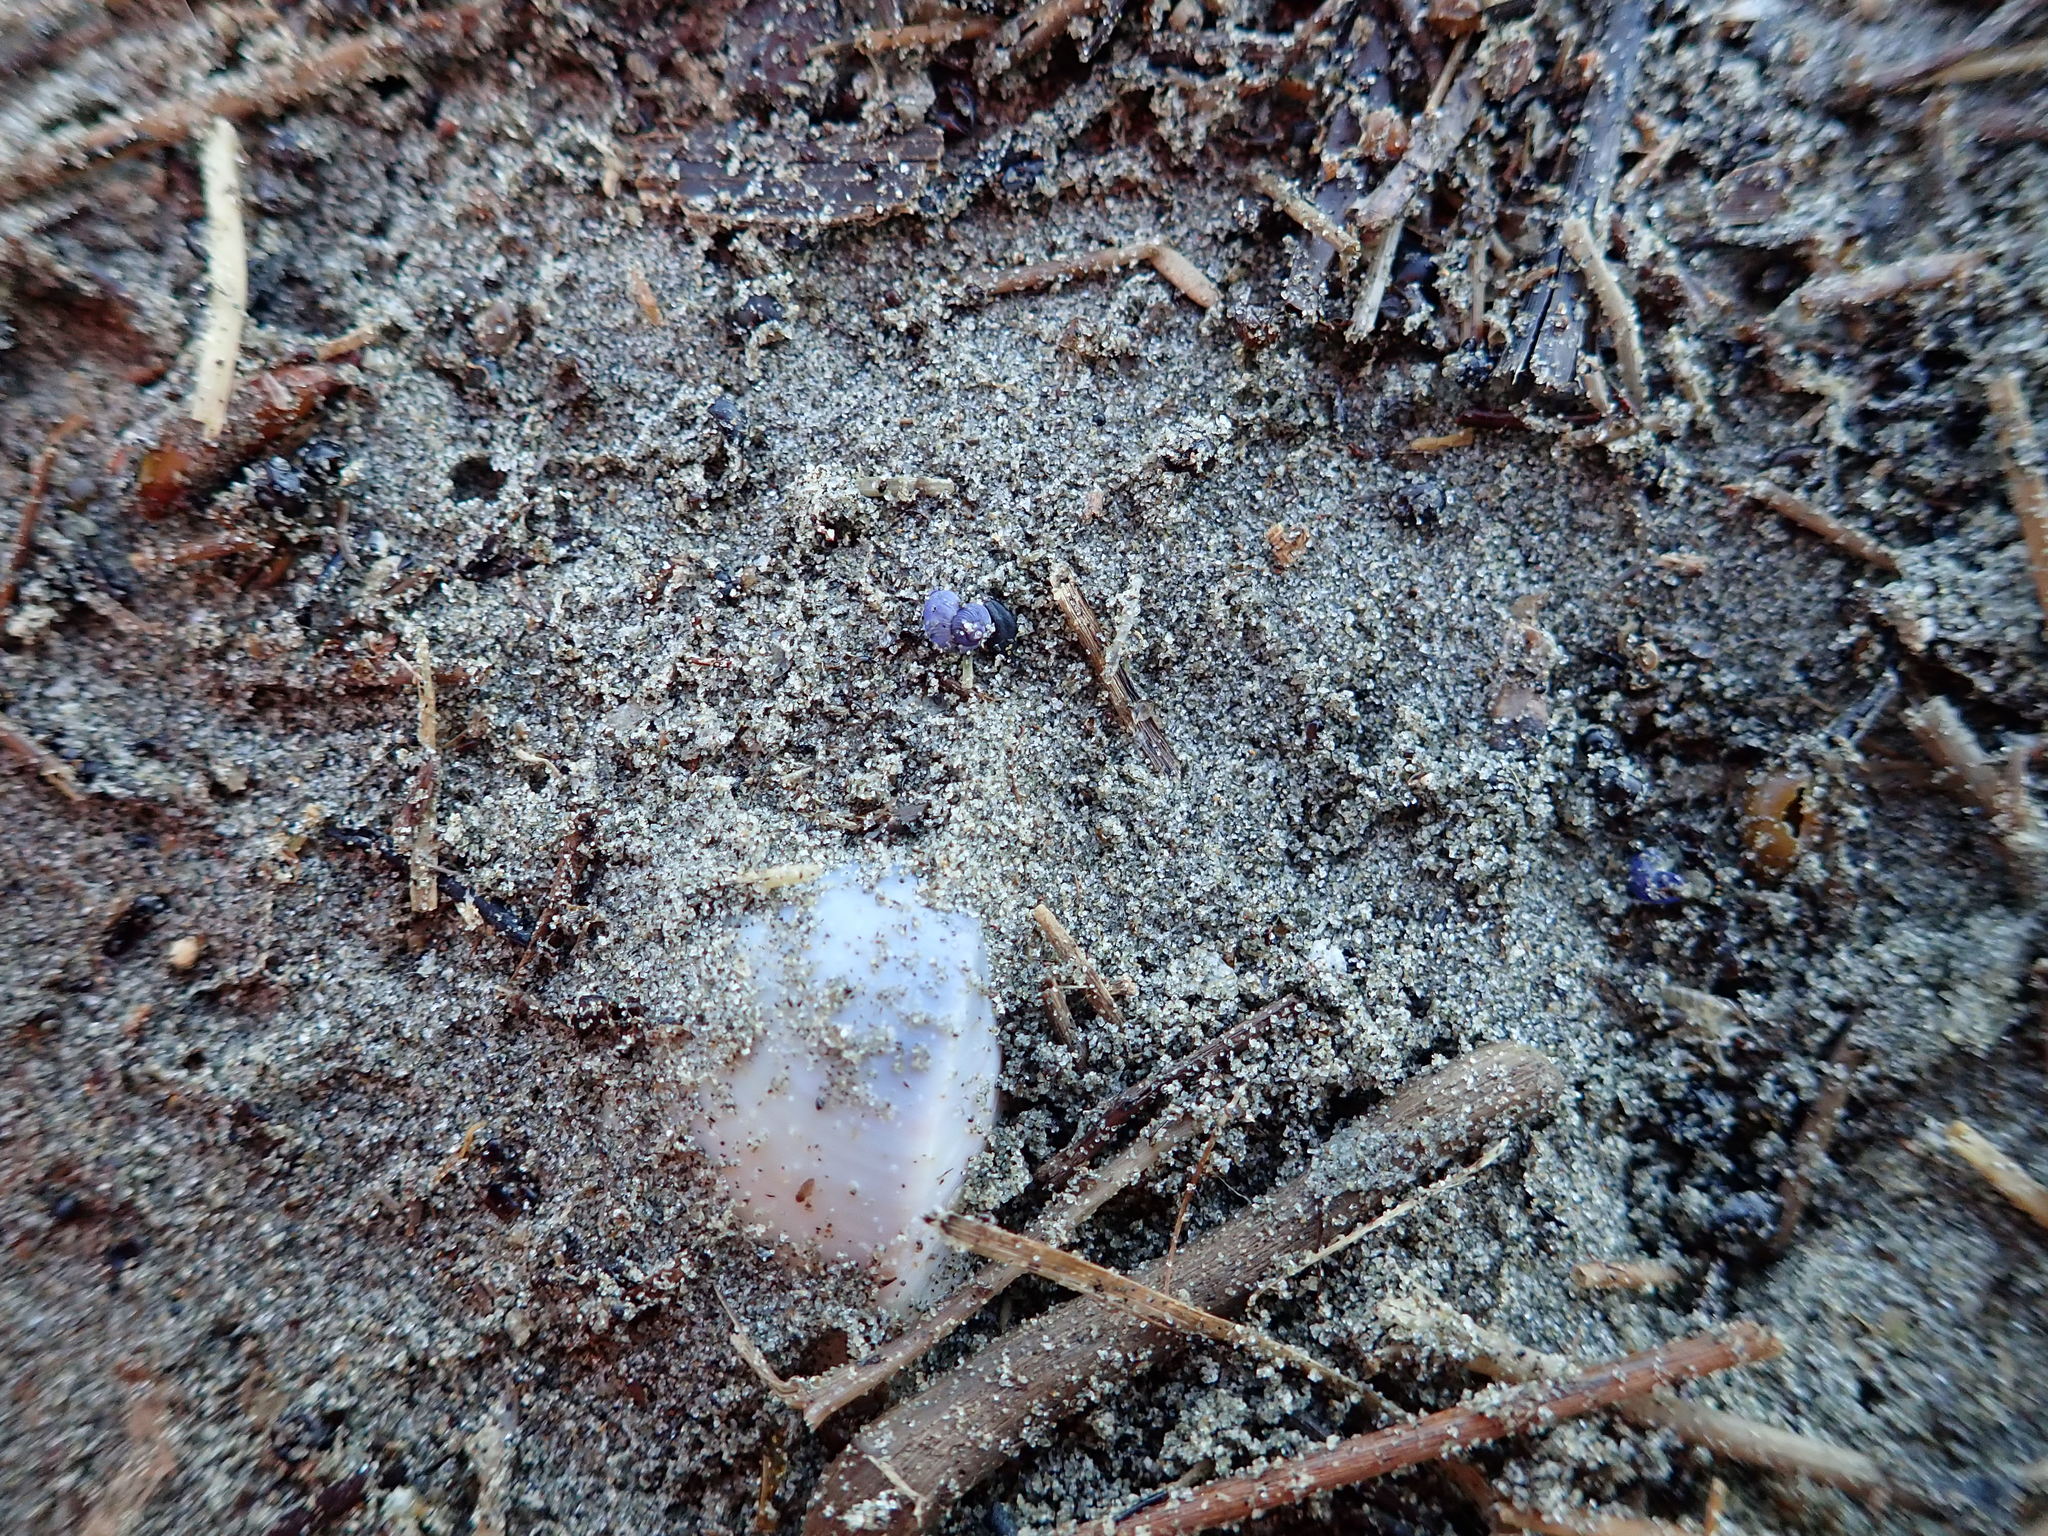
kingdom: Animalia
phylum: Mollusca
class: Gastropoda
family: Epitoniidae
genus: Janthina
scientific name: Janthina exigua
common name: Dwarf janthina
